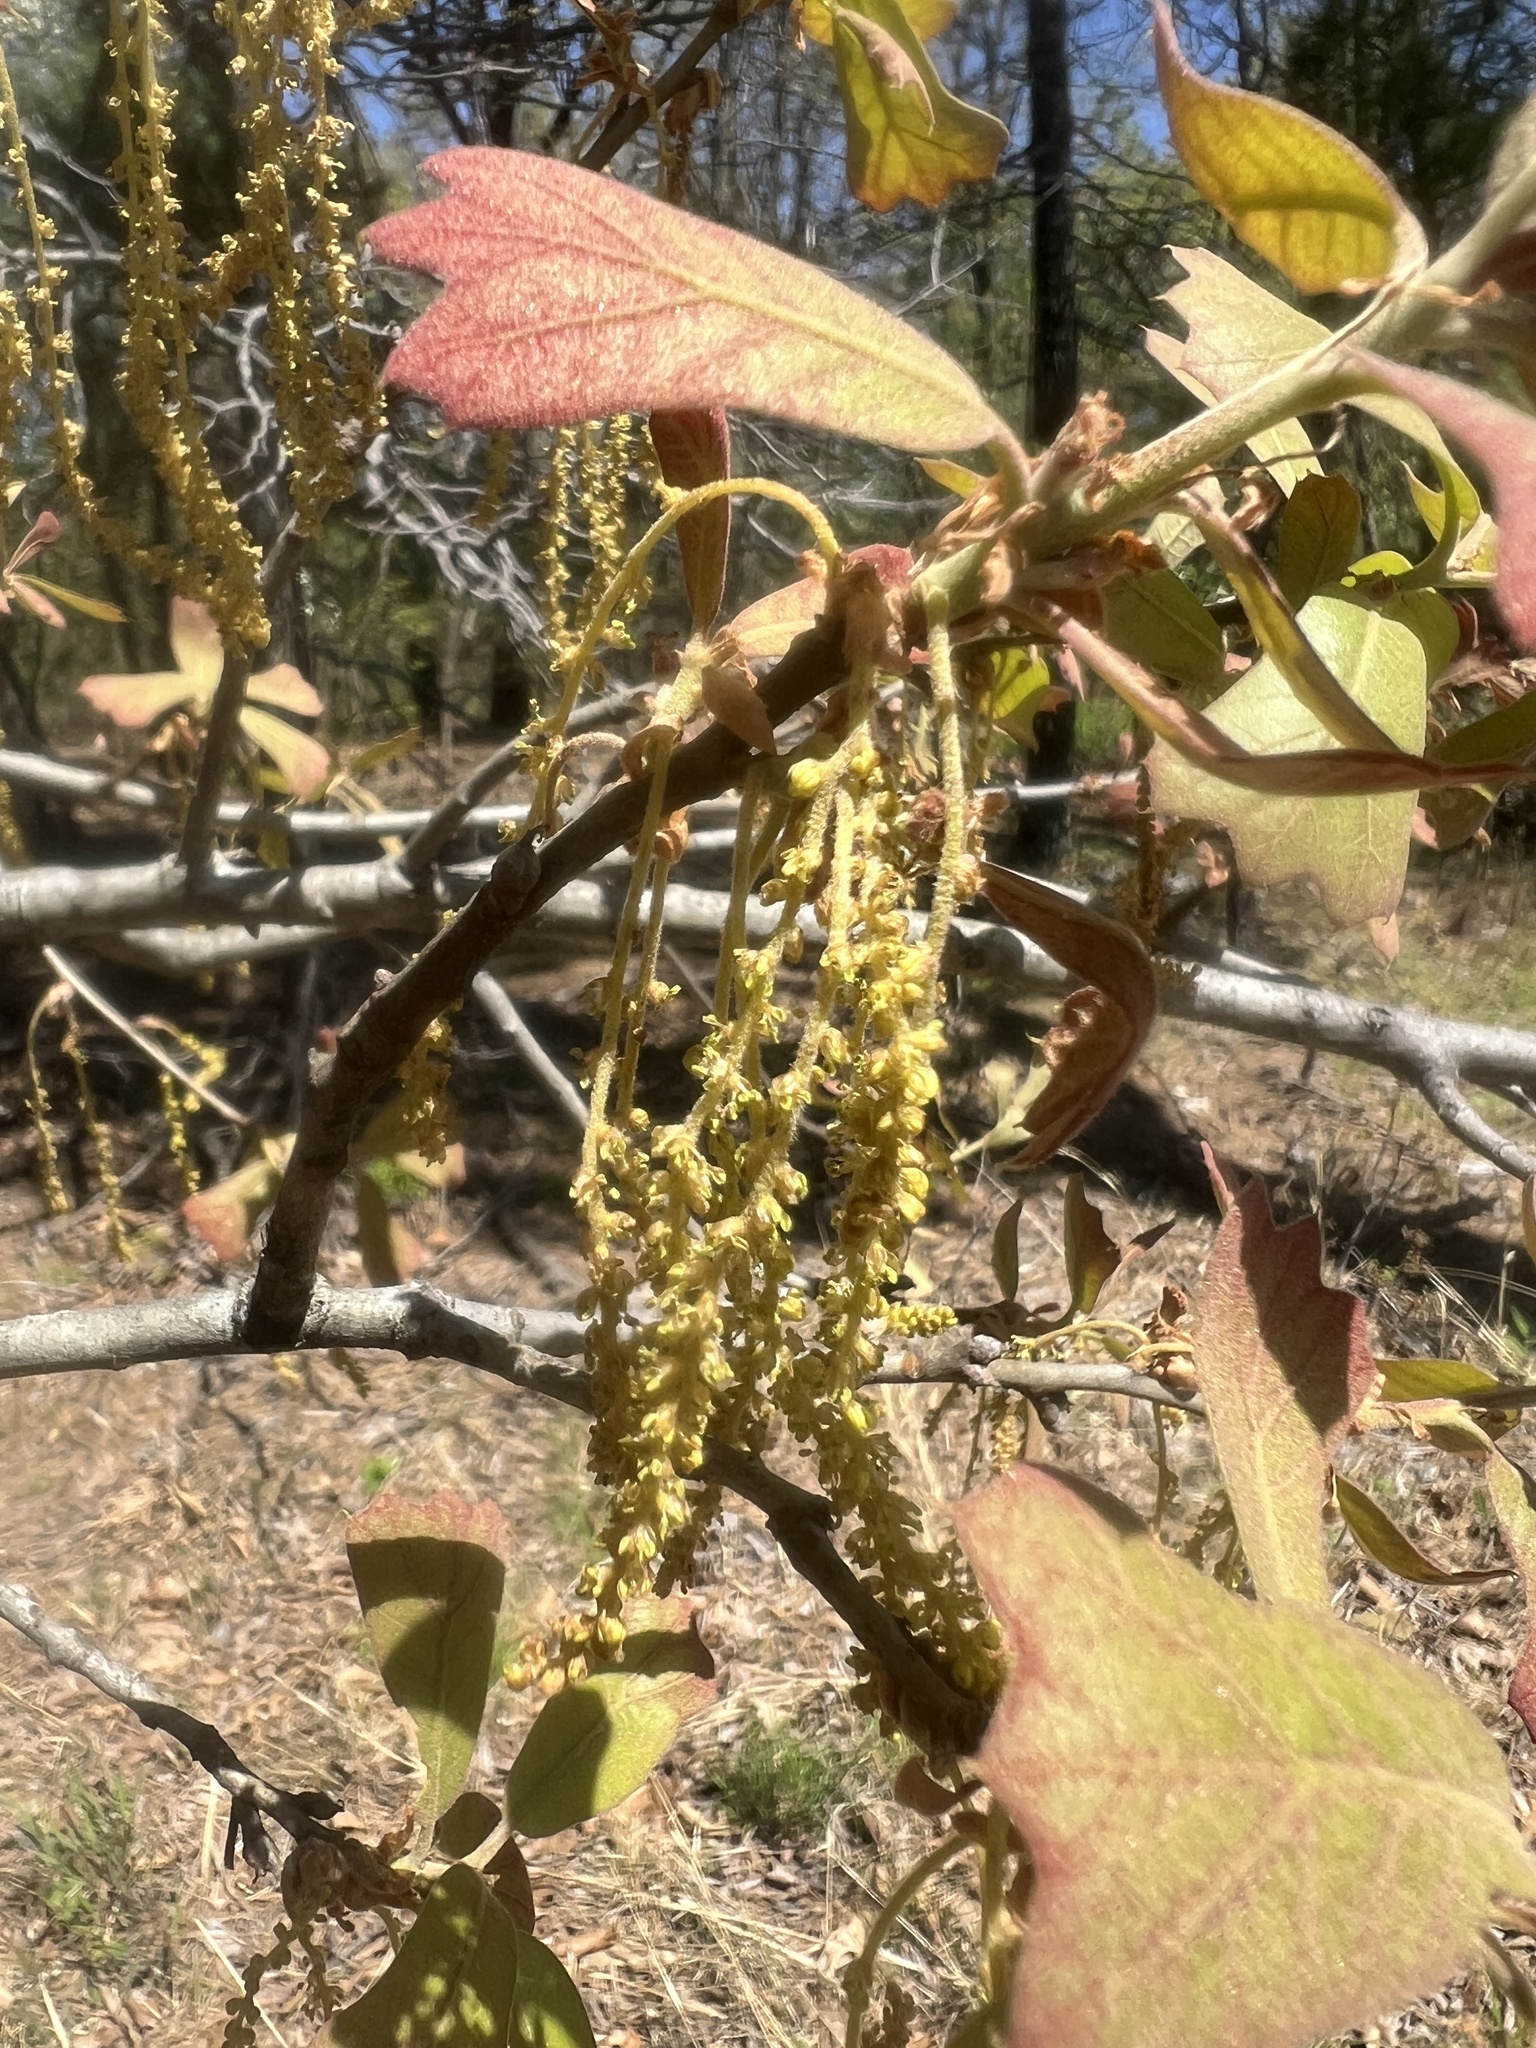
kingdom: Plantae
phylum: Tracheophyta
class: Magnoliopsida
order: Fagales
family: Fagaceae
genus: Quercus
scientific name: Quercus marilandica
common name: Blackjack oak
